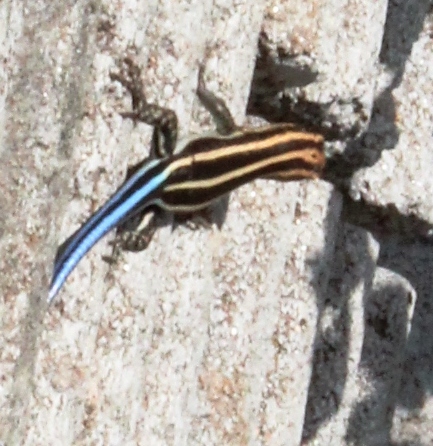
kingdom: Animalia
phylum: Chordata
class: Squamata
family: Scincidae
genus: Trachylepis
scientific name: Trachylepis margaritifera
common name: Rainbow skink
